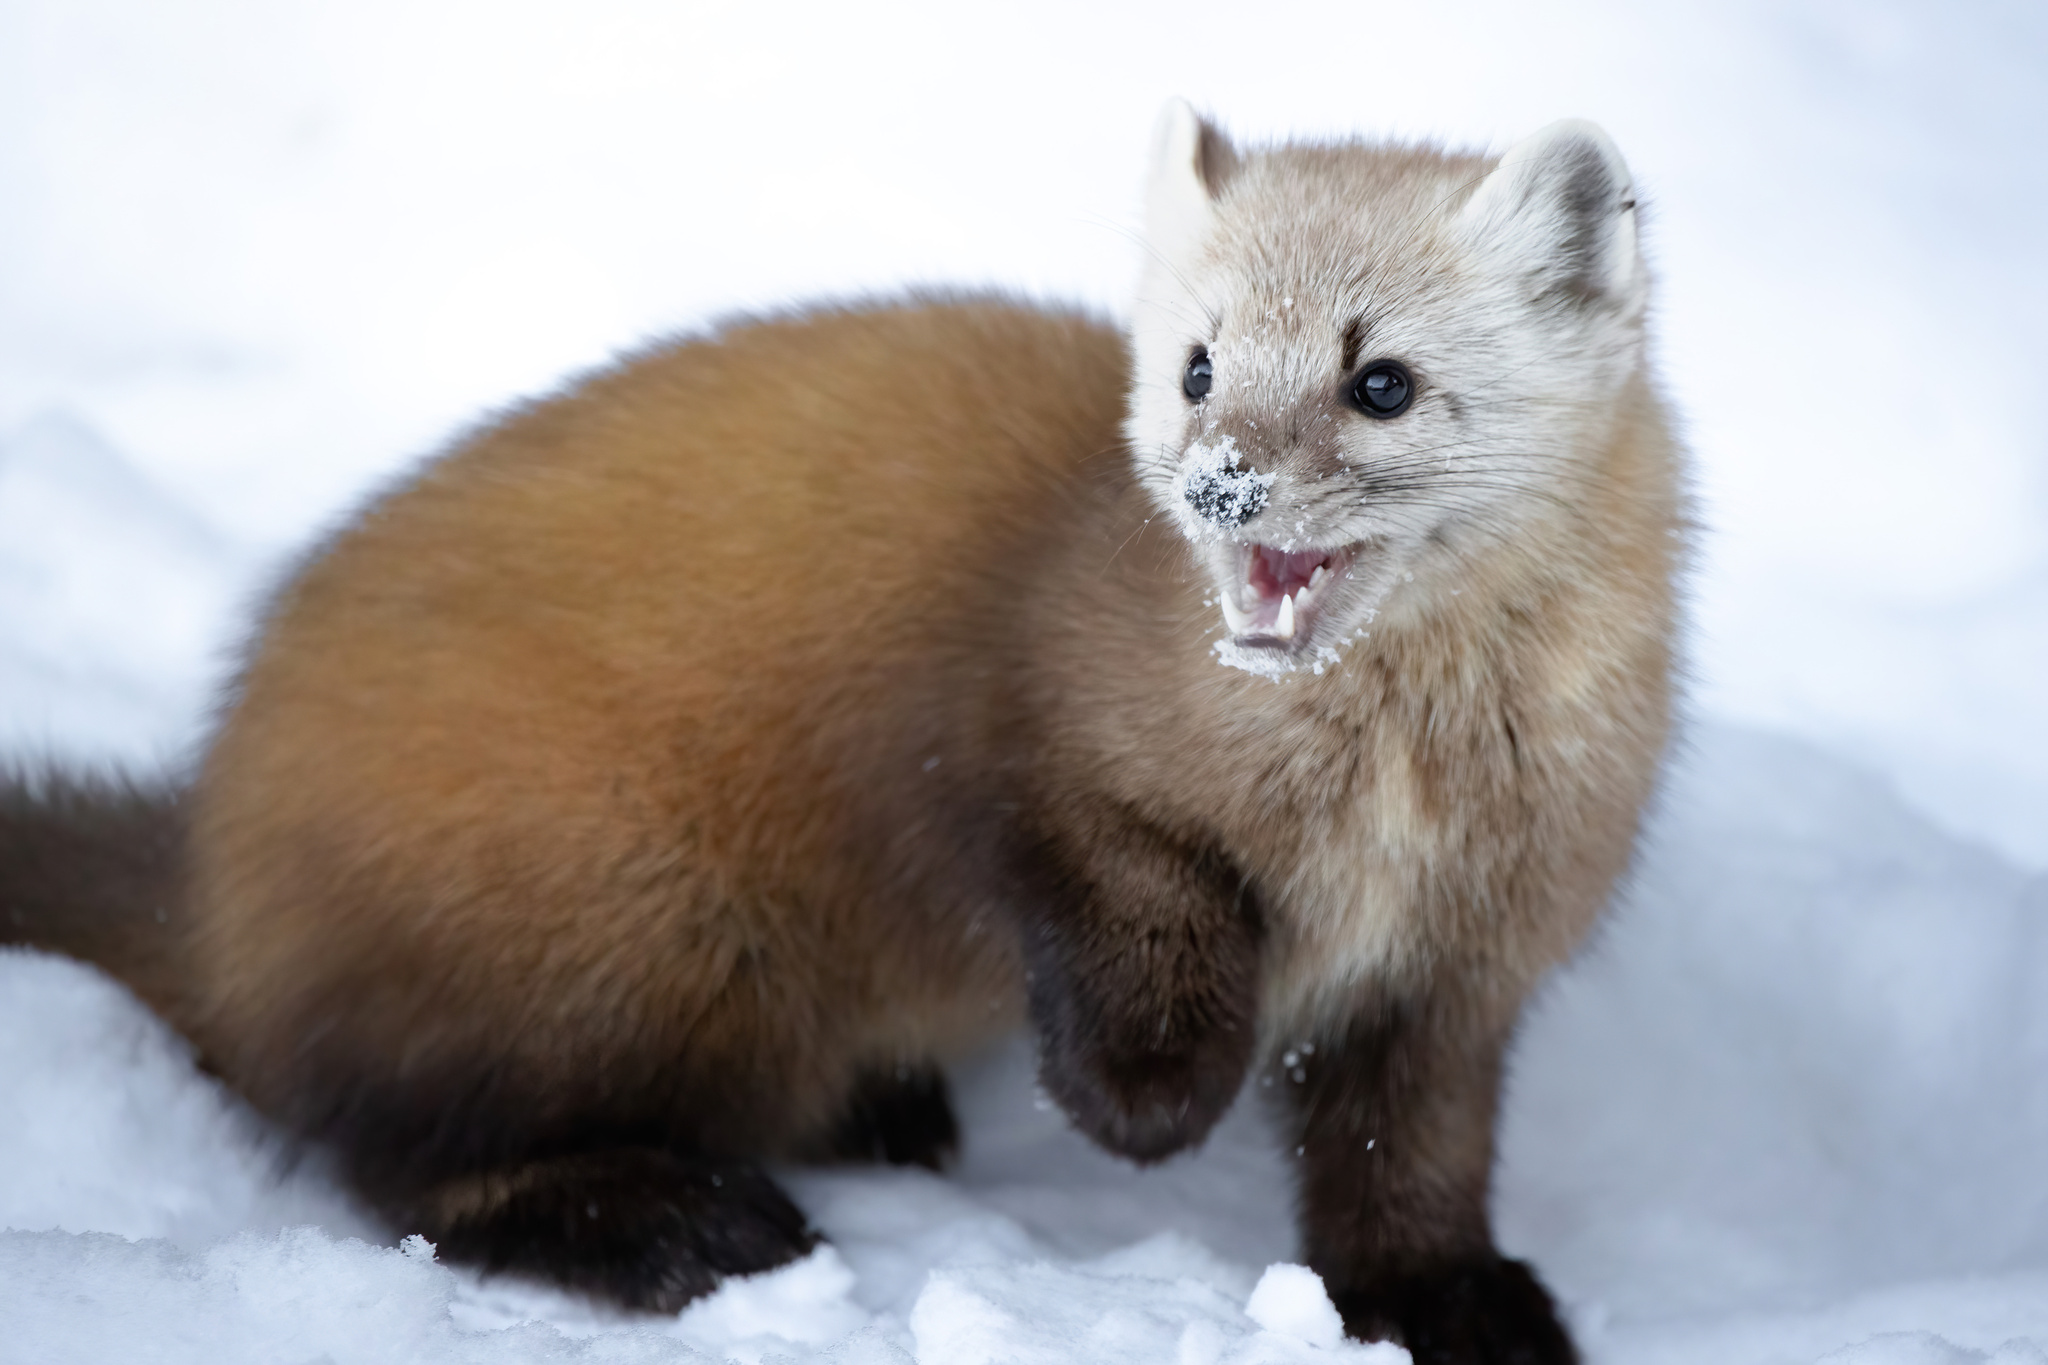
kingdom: Animalia
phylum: Chordata
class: Mammalia
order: Carnivora
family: Mustelidae
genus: Martes
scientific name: Martes americana
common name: American marten
